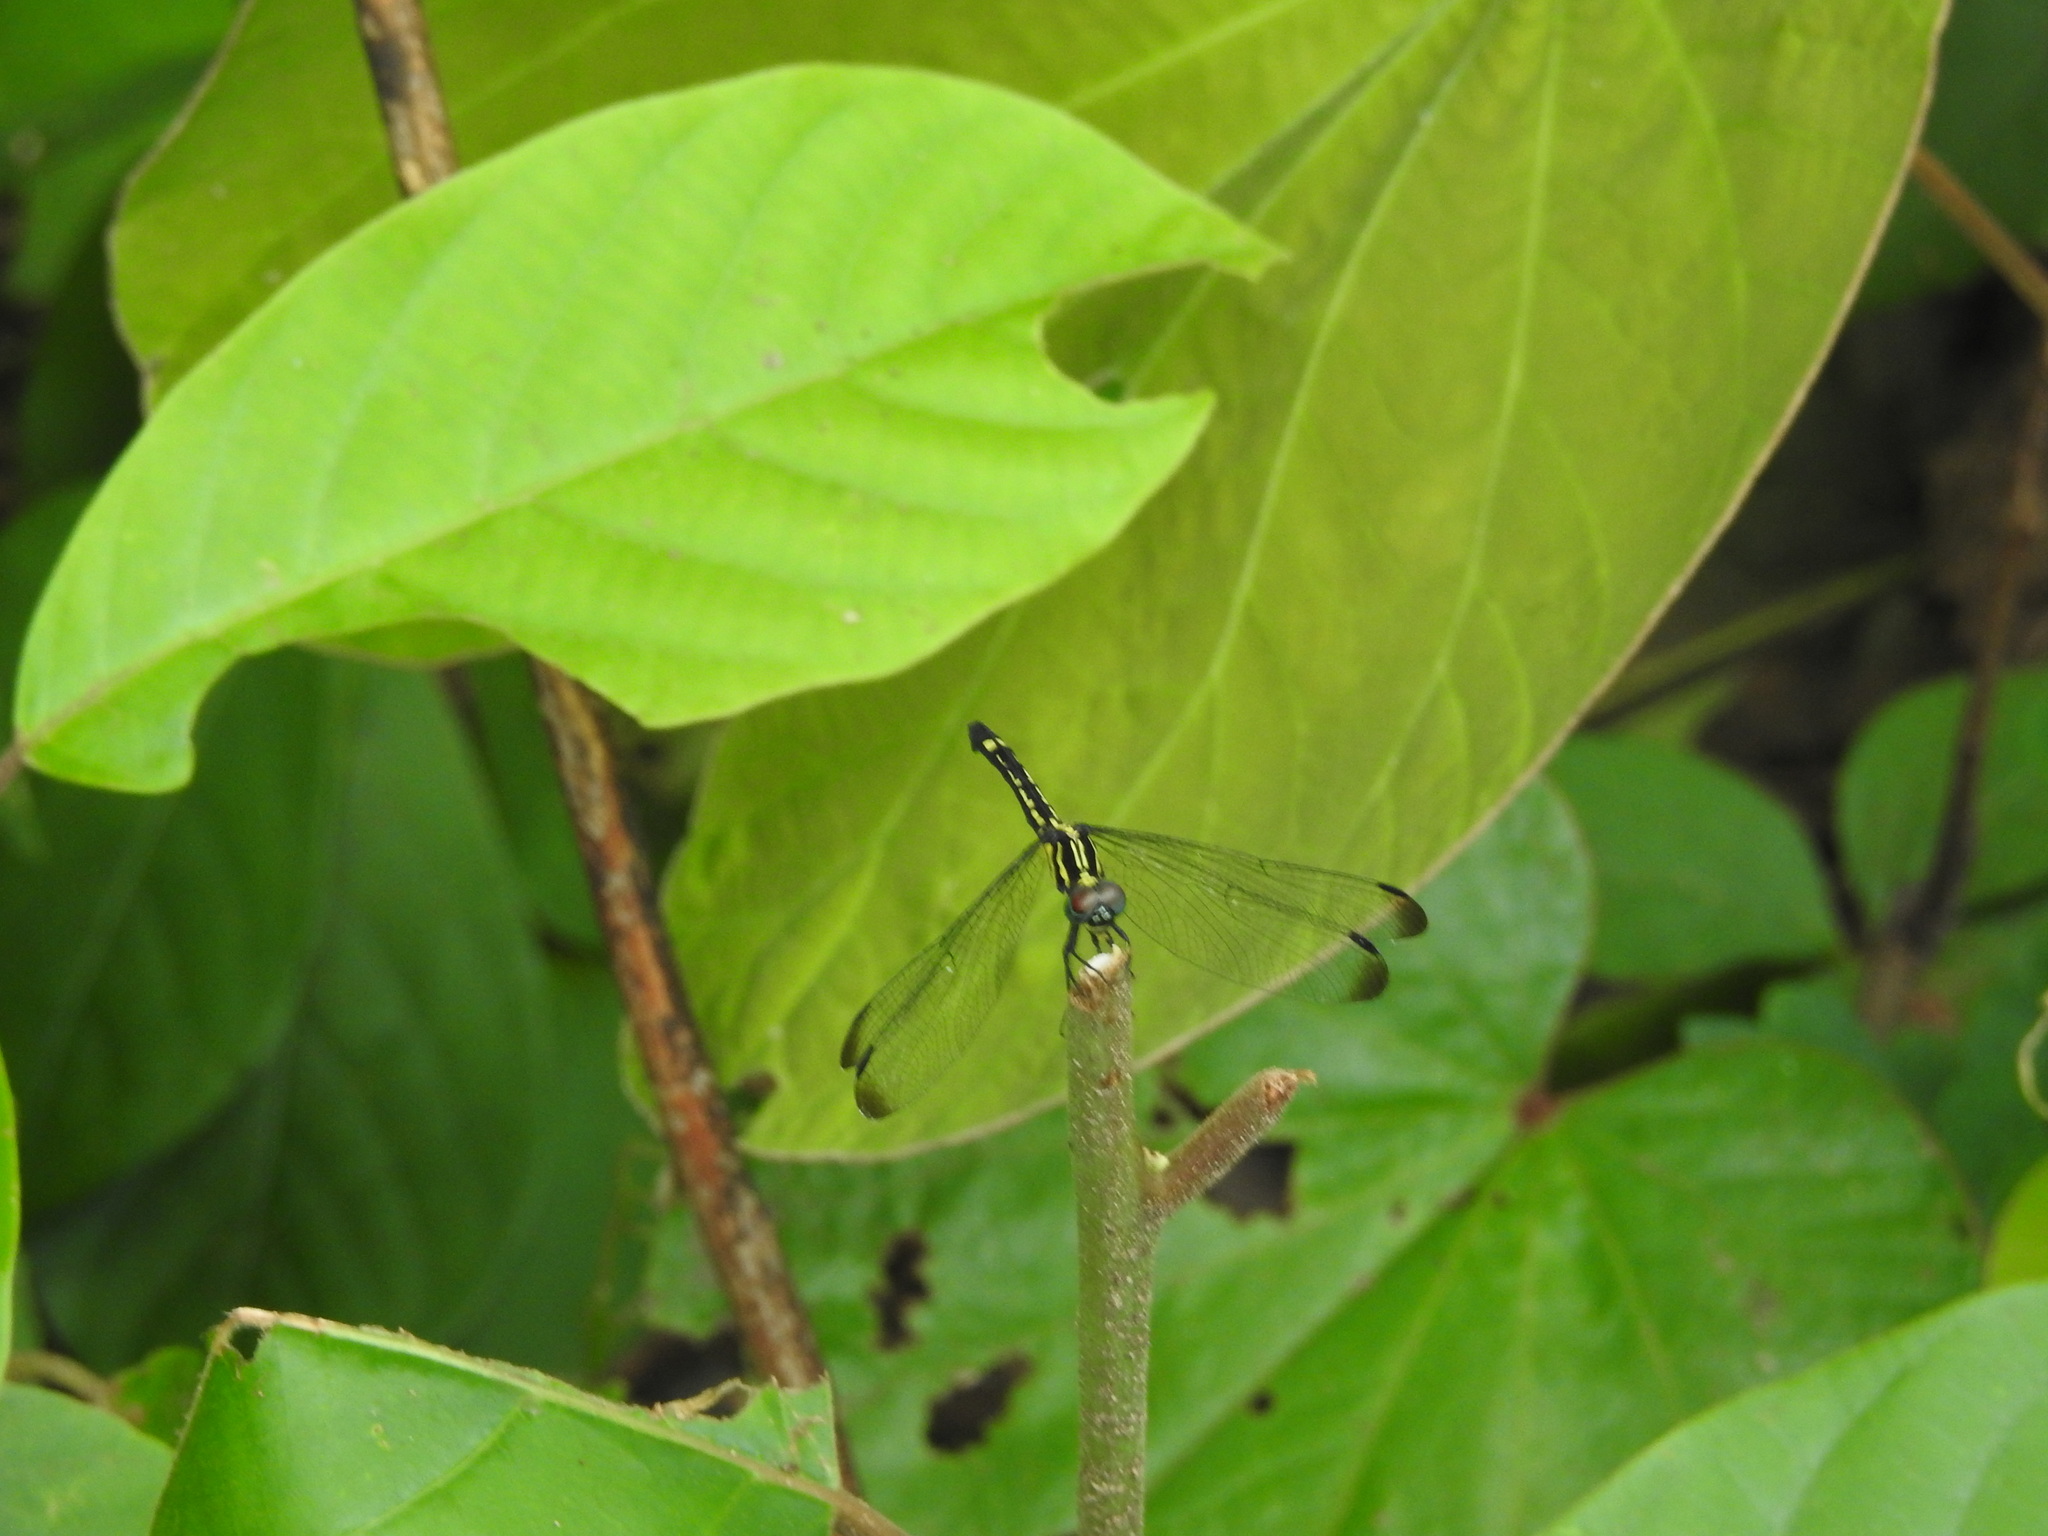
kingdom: Animalia
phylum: Arthropoda
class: Insecta
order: Odonata
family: Libellulidae
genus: Hylaeothemis
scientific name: Hylaeothemis apicalis
